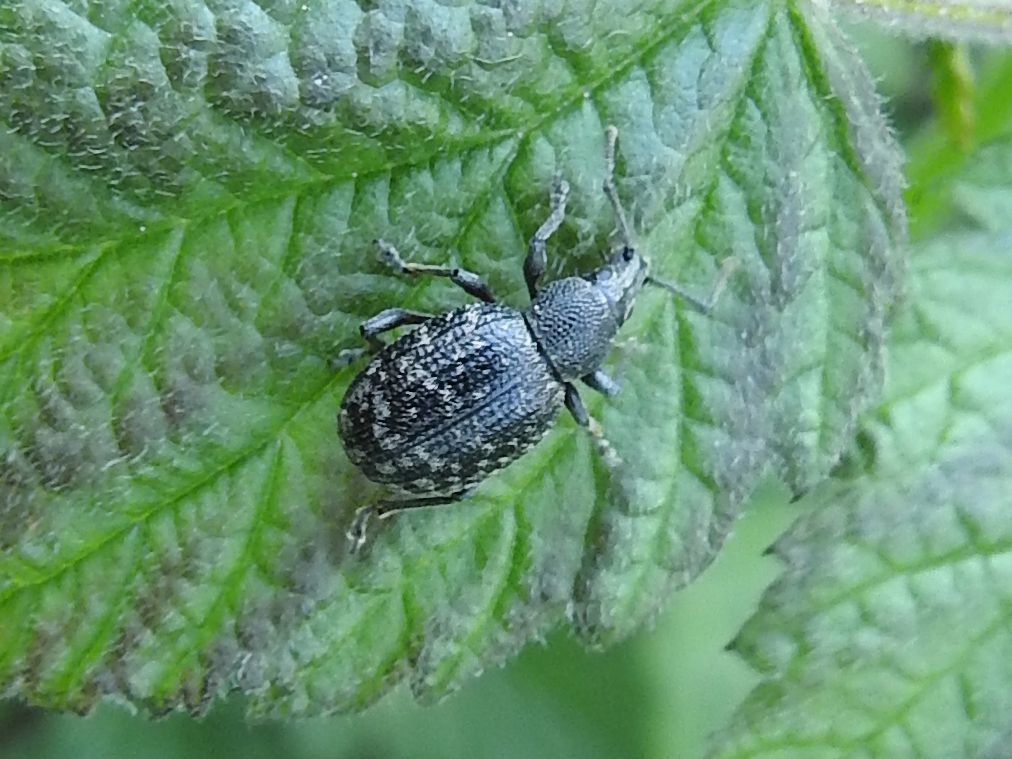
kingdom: Animalia
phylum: Arthropoda
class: Insecta
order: Coleoptera
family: Curculionidae
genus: Otiorhynchus
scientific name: Otiorhynchus nodosus
